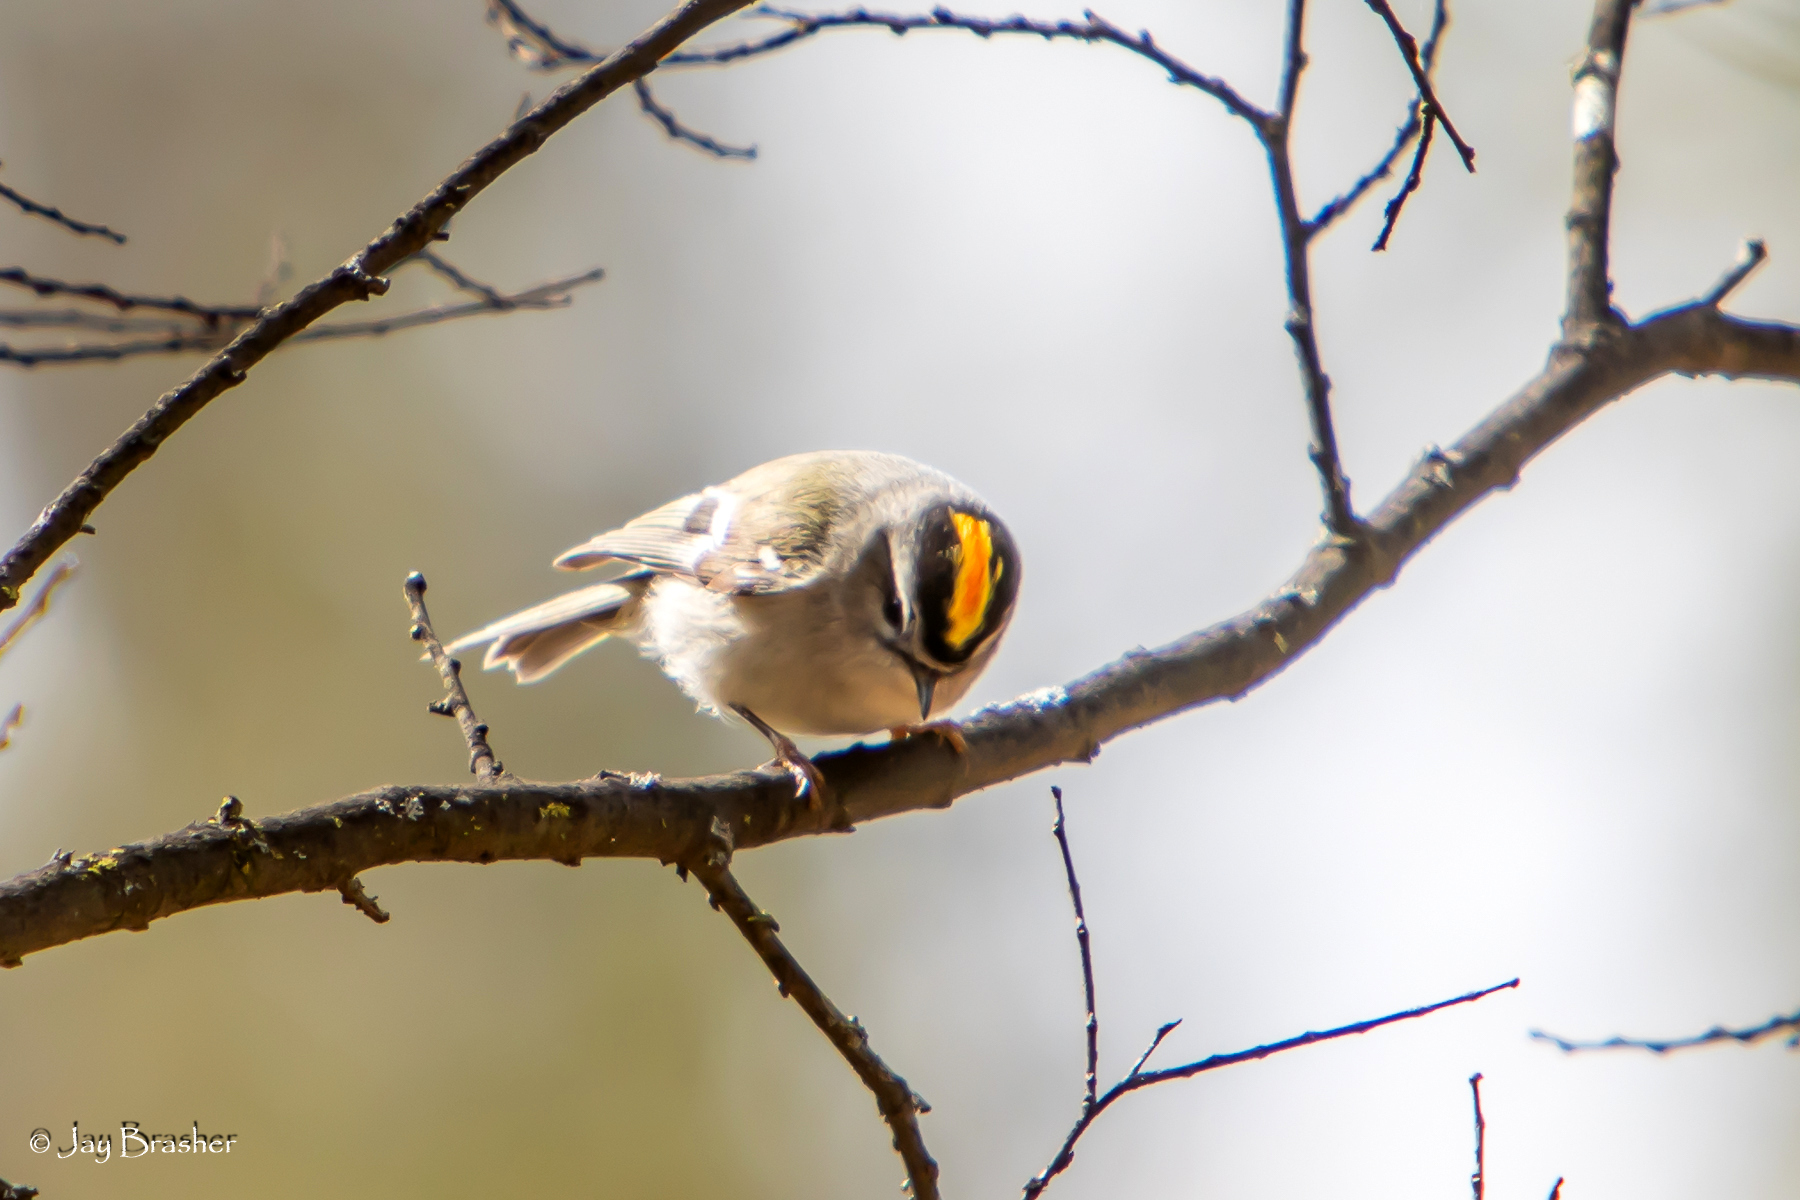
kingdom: Animalia
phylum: Chordata
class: Aves
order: Passeriformes
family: Regulidae
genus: Regulus
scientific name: Regulus satrapa
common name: Golden-crowned kinglet
